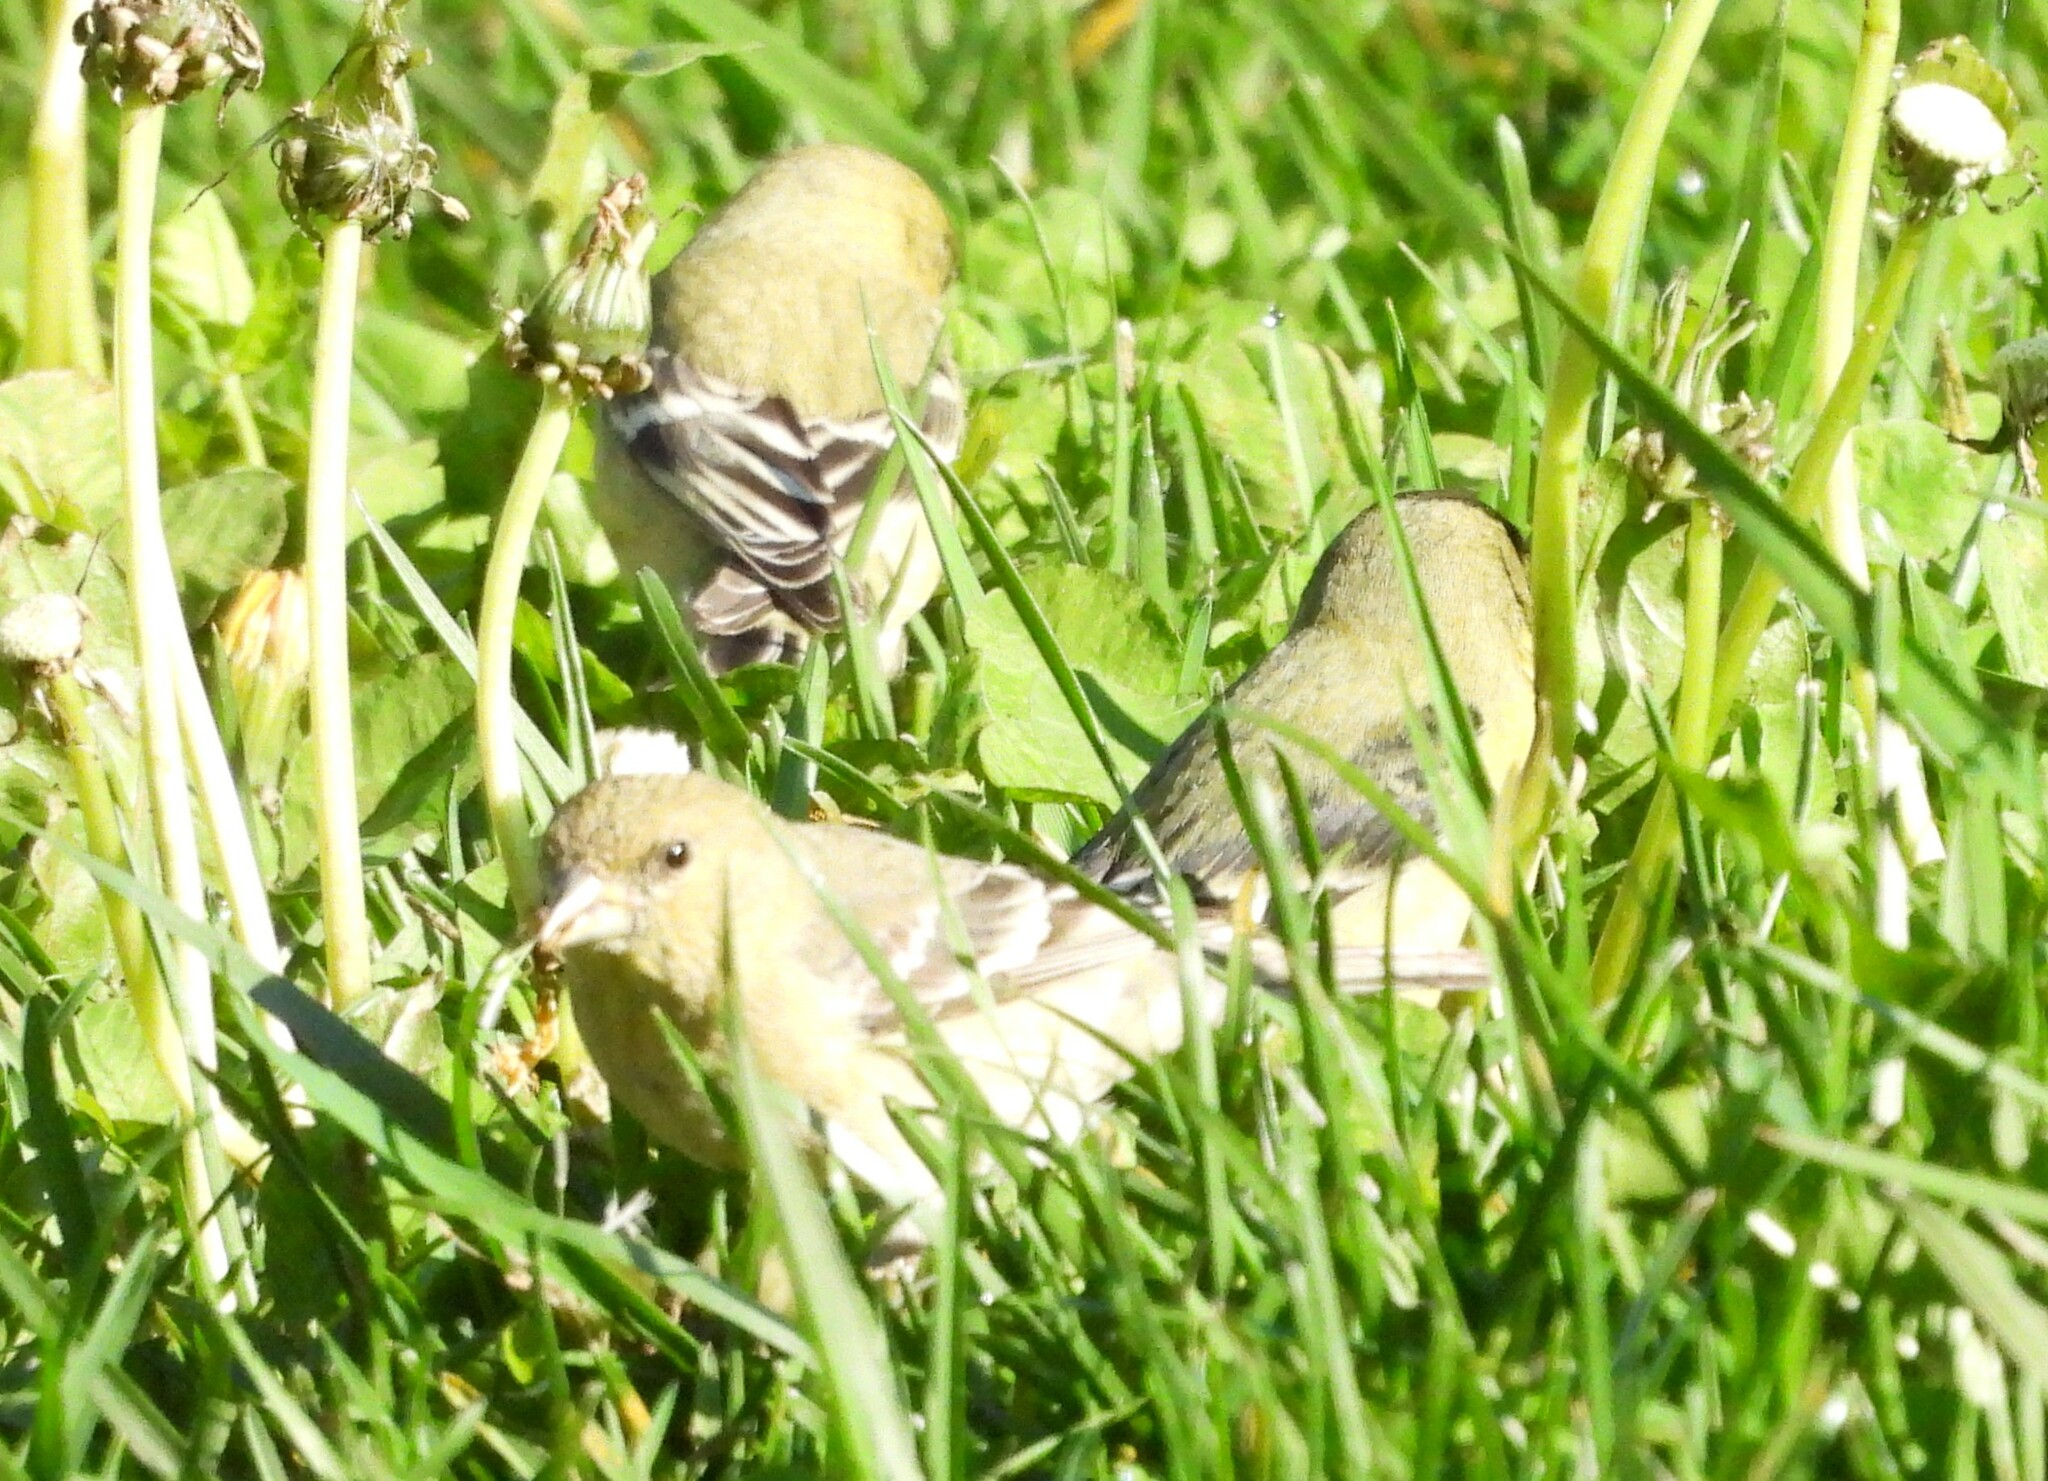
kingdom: Animalia
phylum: Chordata
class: Aves
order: Passeriformes
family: Fringillidae
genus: Spinus
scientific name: Spinus psaltria
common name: Lesser goldfinch
